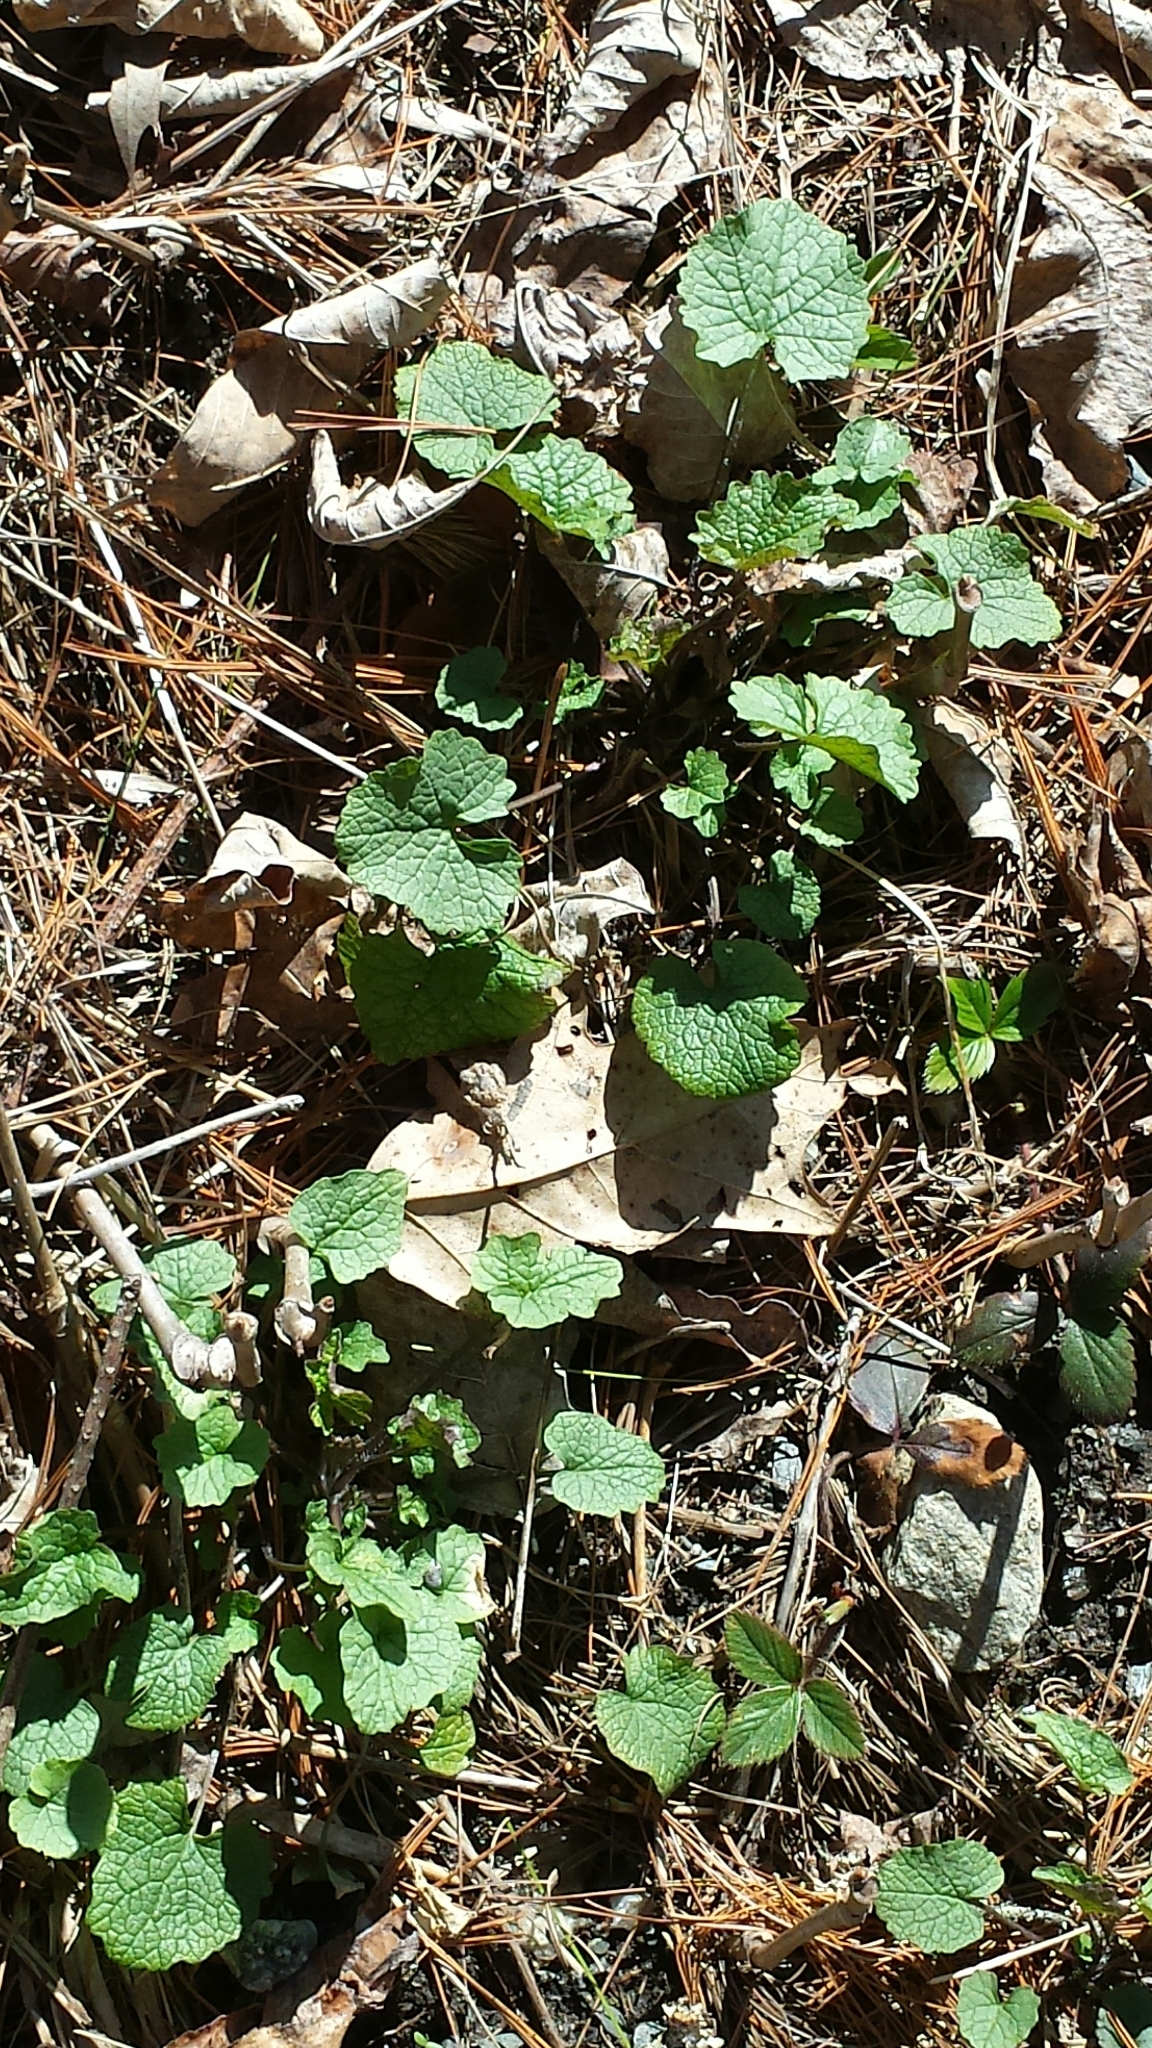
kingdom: Plantae
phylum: Tracheophyta
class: Magnoliopsida
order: Brassicales
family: Brassicaceae
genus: Alliaria
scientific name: Alliaria petiolata
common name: Garlic mustard
